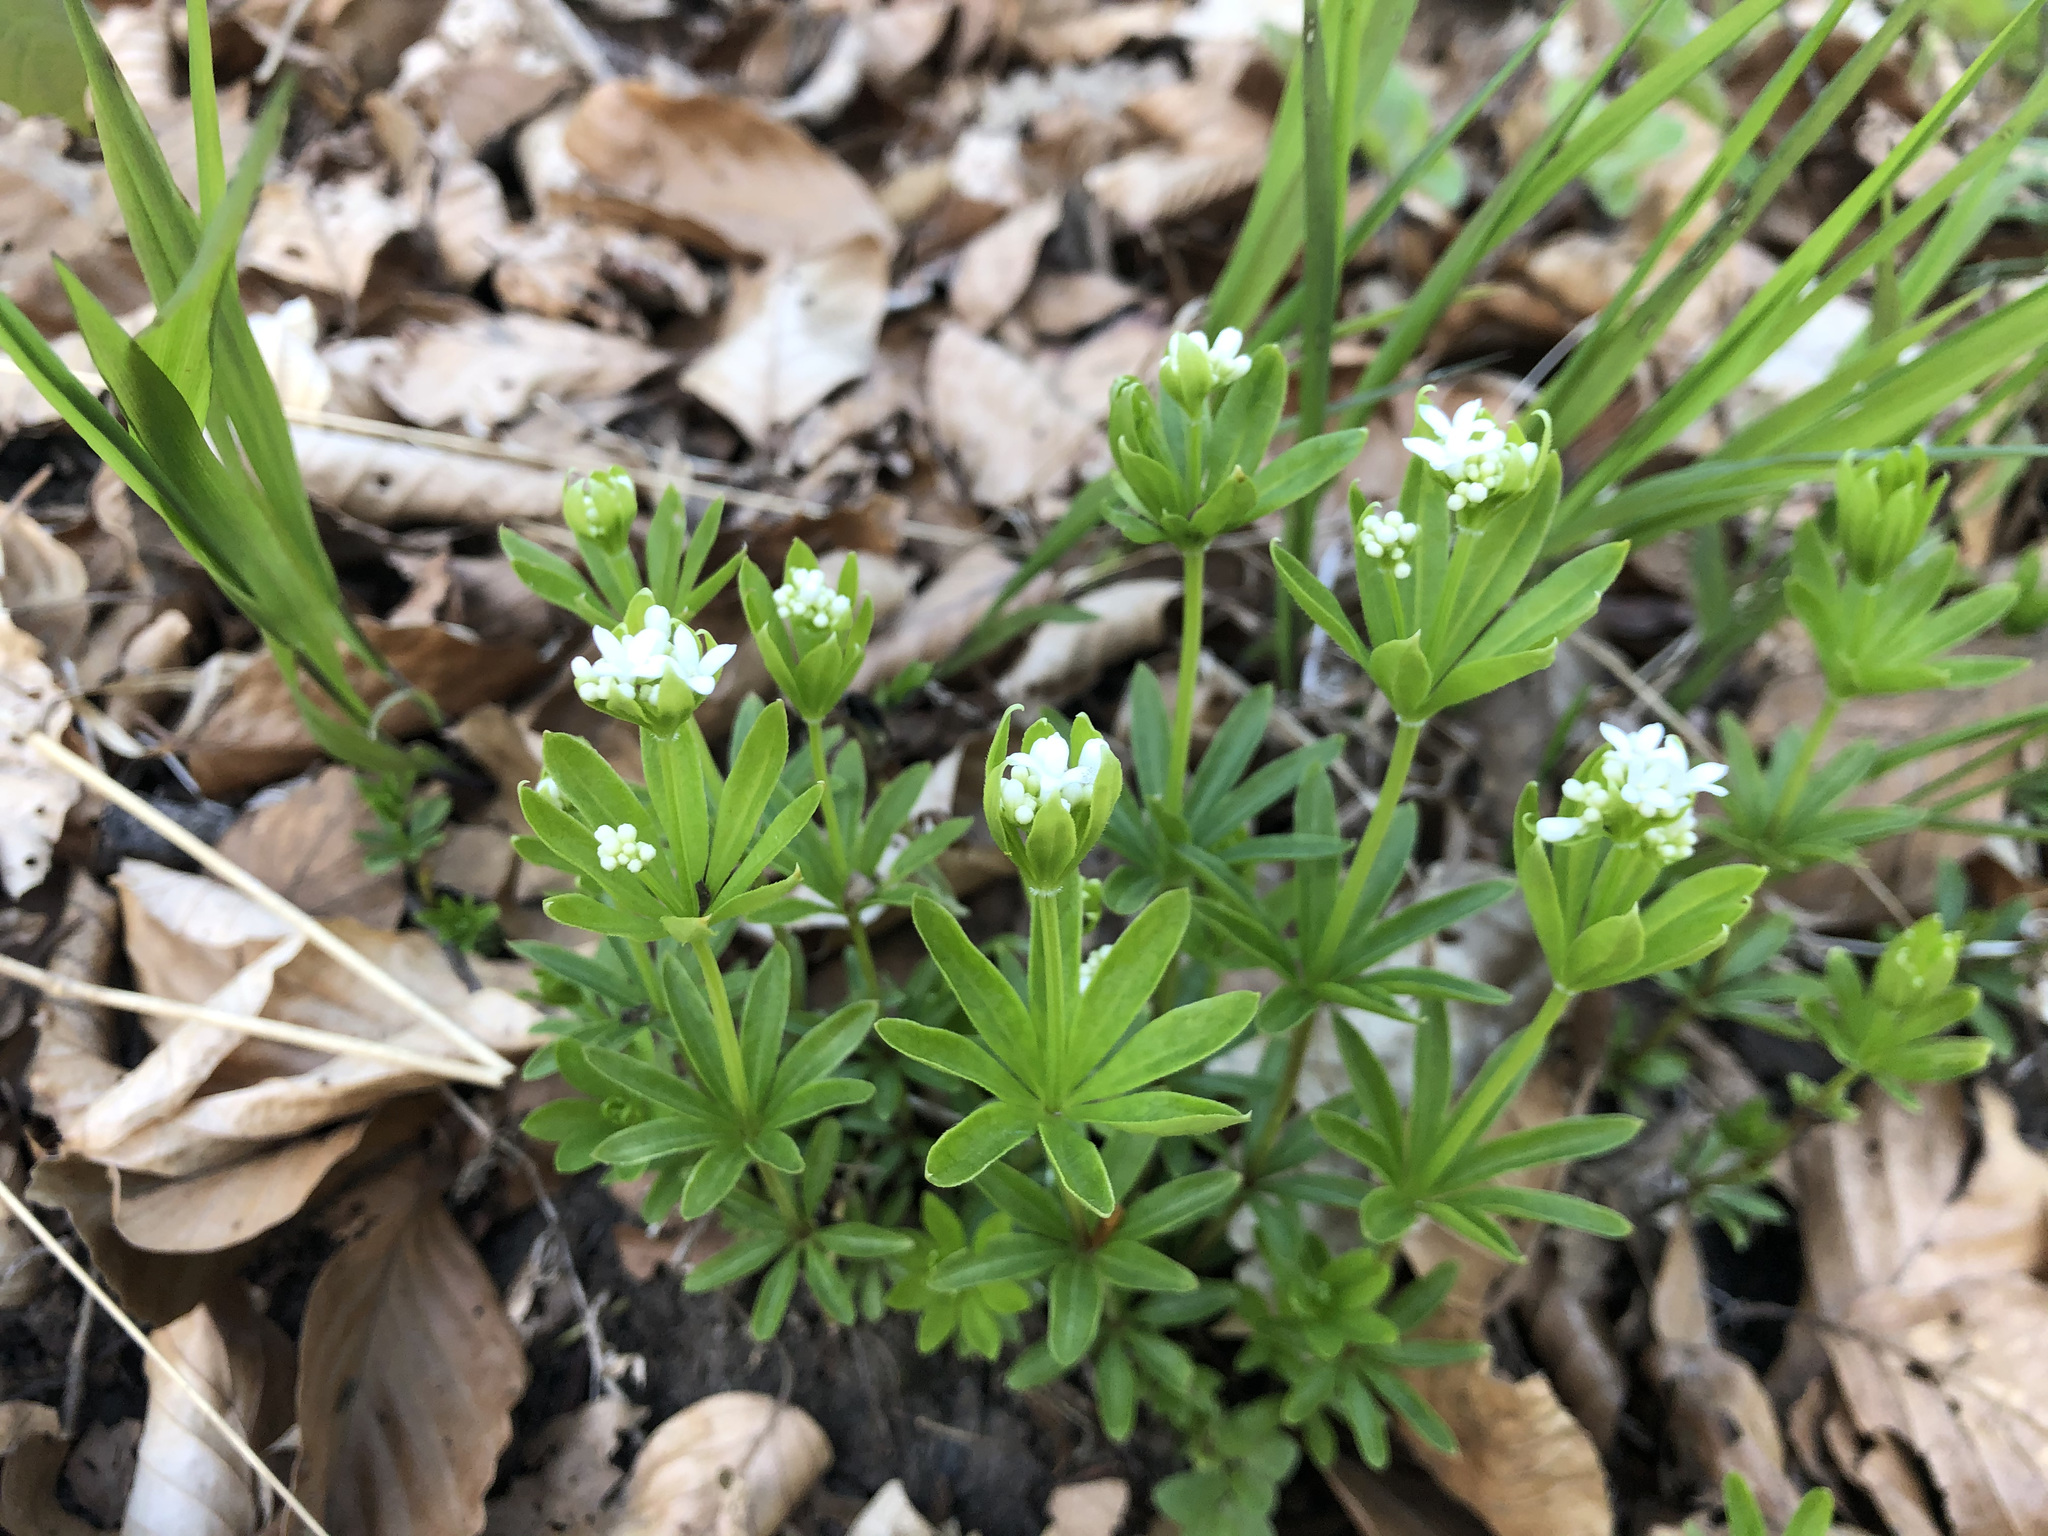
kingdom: Plantae
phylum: Tracheophyta
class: Magnoliopsida
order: Gentianales
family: Rubiaceae
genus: Galium
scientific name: Galium odoratum
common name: Sweet woodruff
